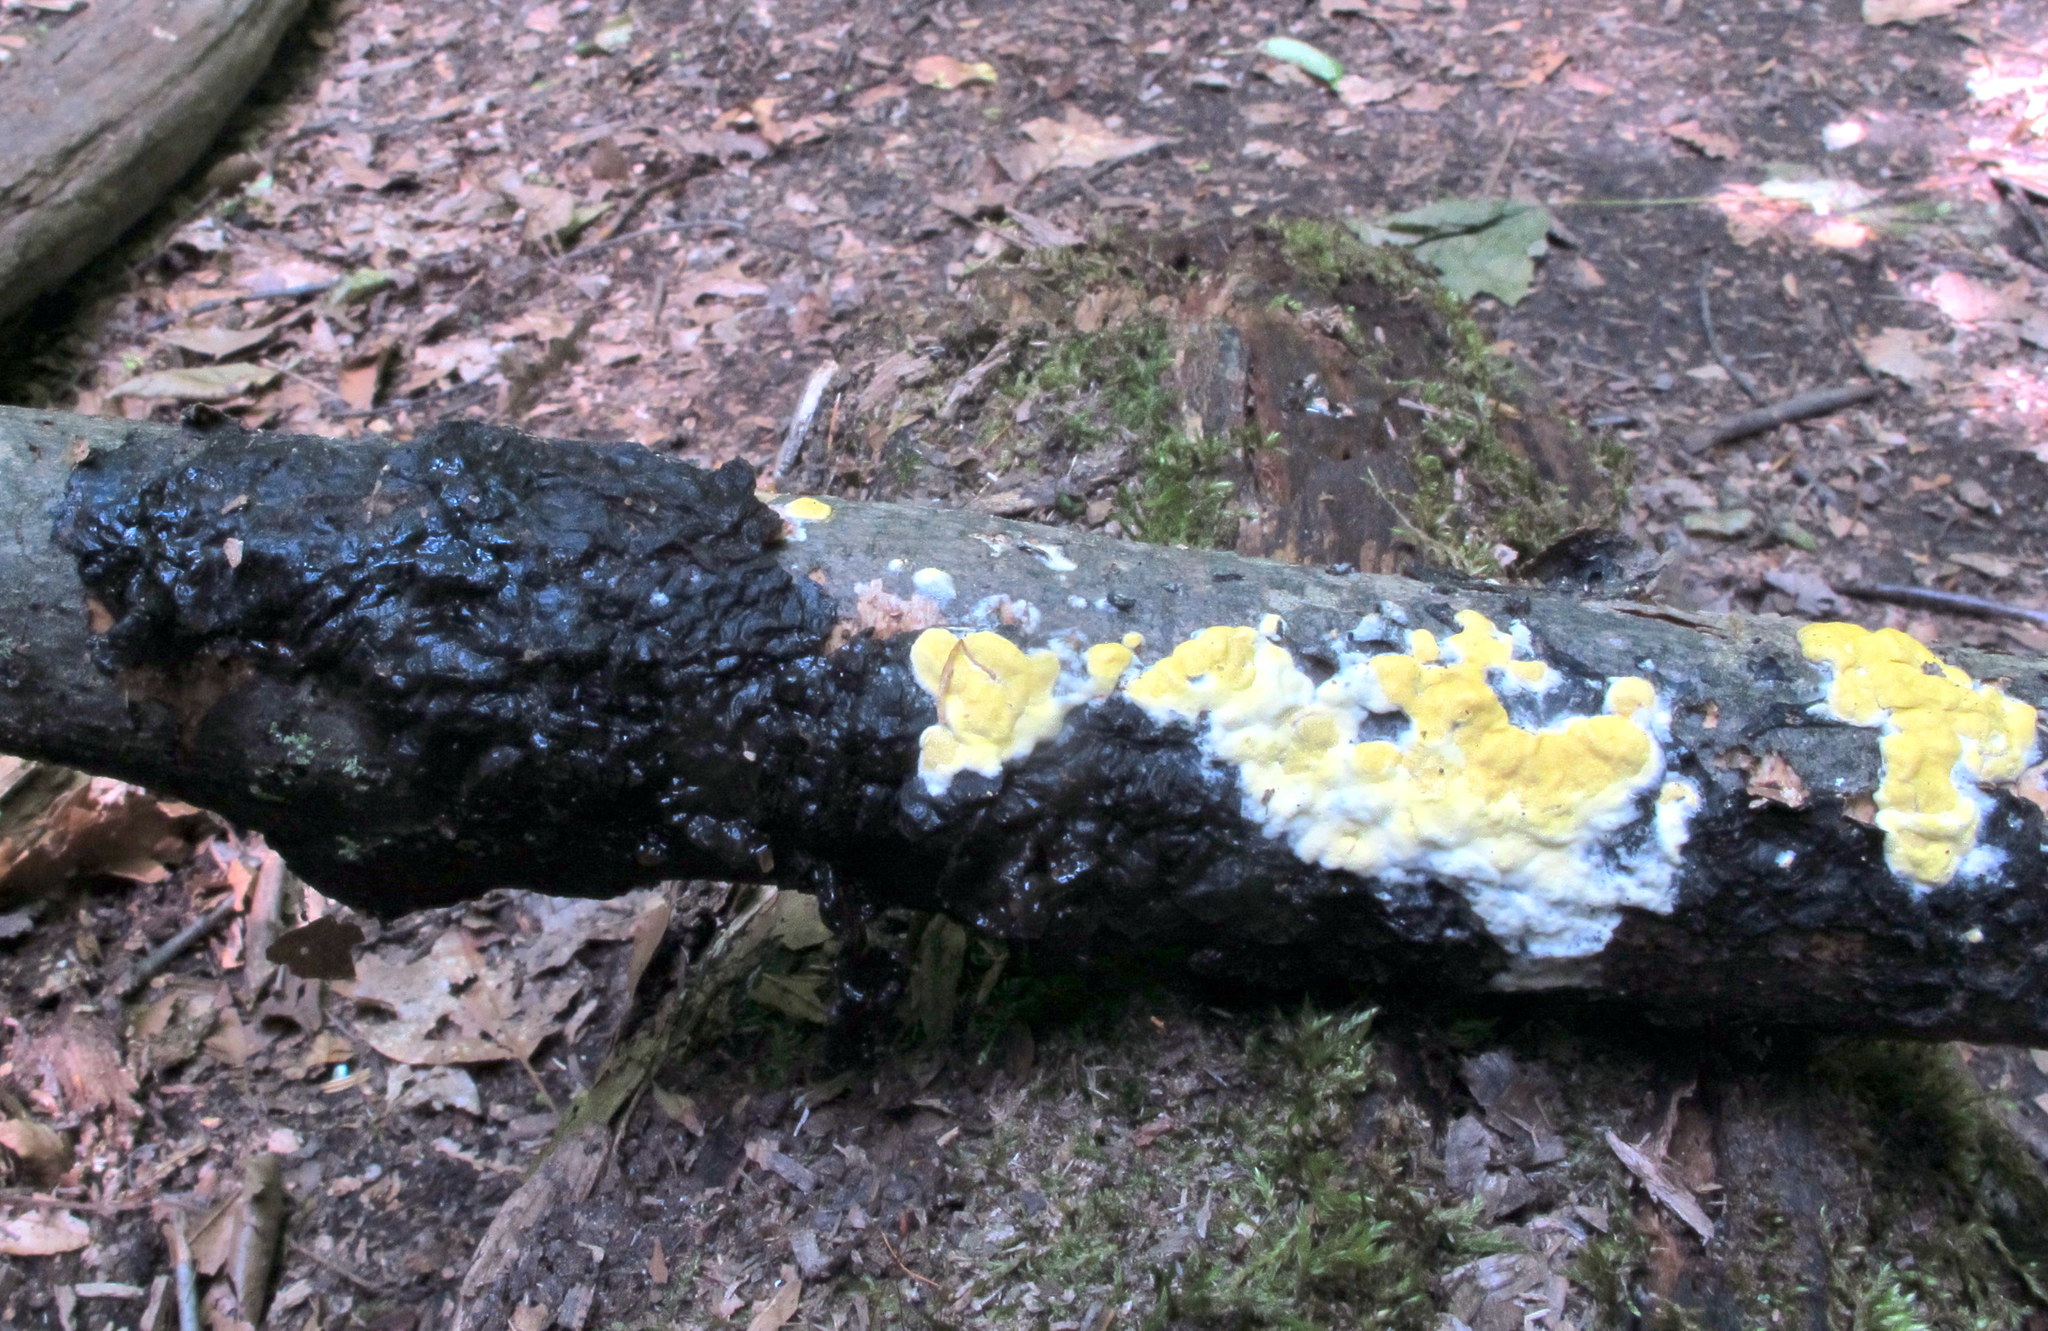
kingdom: Fungi
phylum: Ascomycota
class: Sordariomycetes
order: Hypocreales
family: Hypocreaceae
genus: Trichoderma
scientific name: Trichoderma sulphureum
